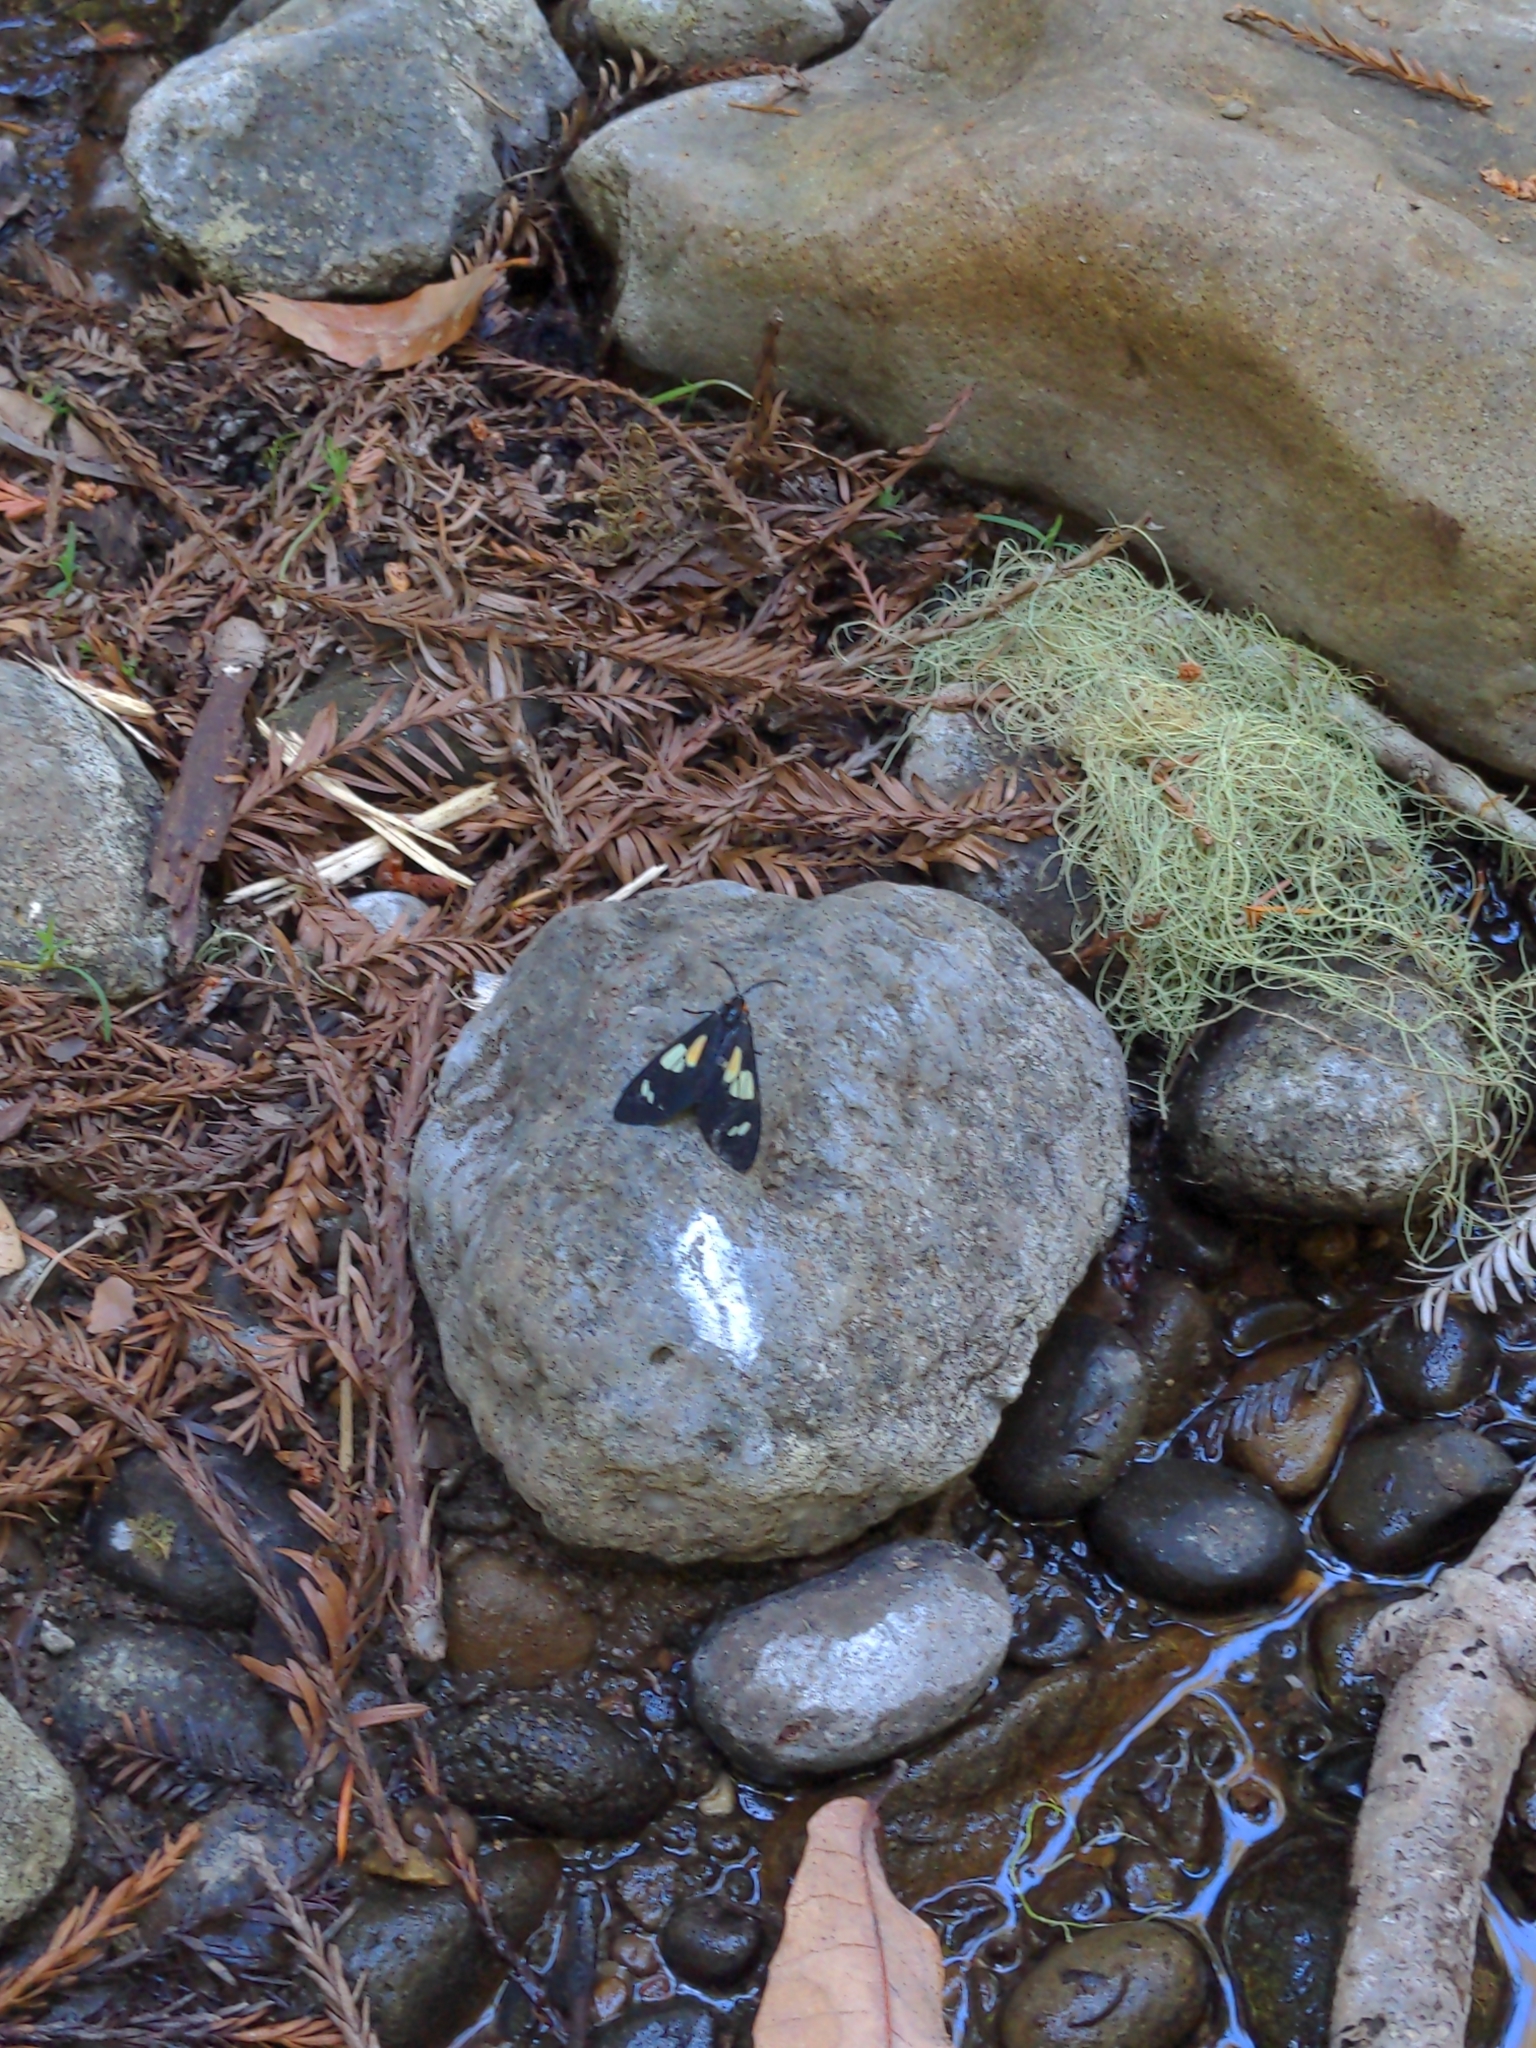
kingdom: Animalia
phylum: Arthropoda
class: Insecta
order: Lepidoptera
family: Erebidae
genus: Gnophaela
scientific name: Gnophaela latipennis
